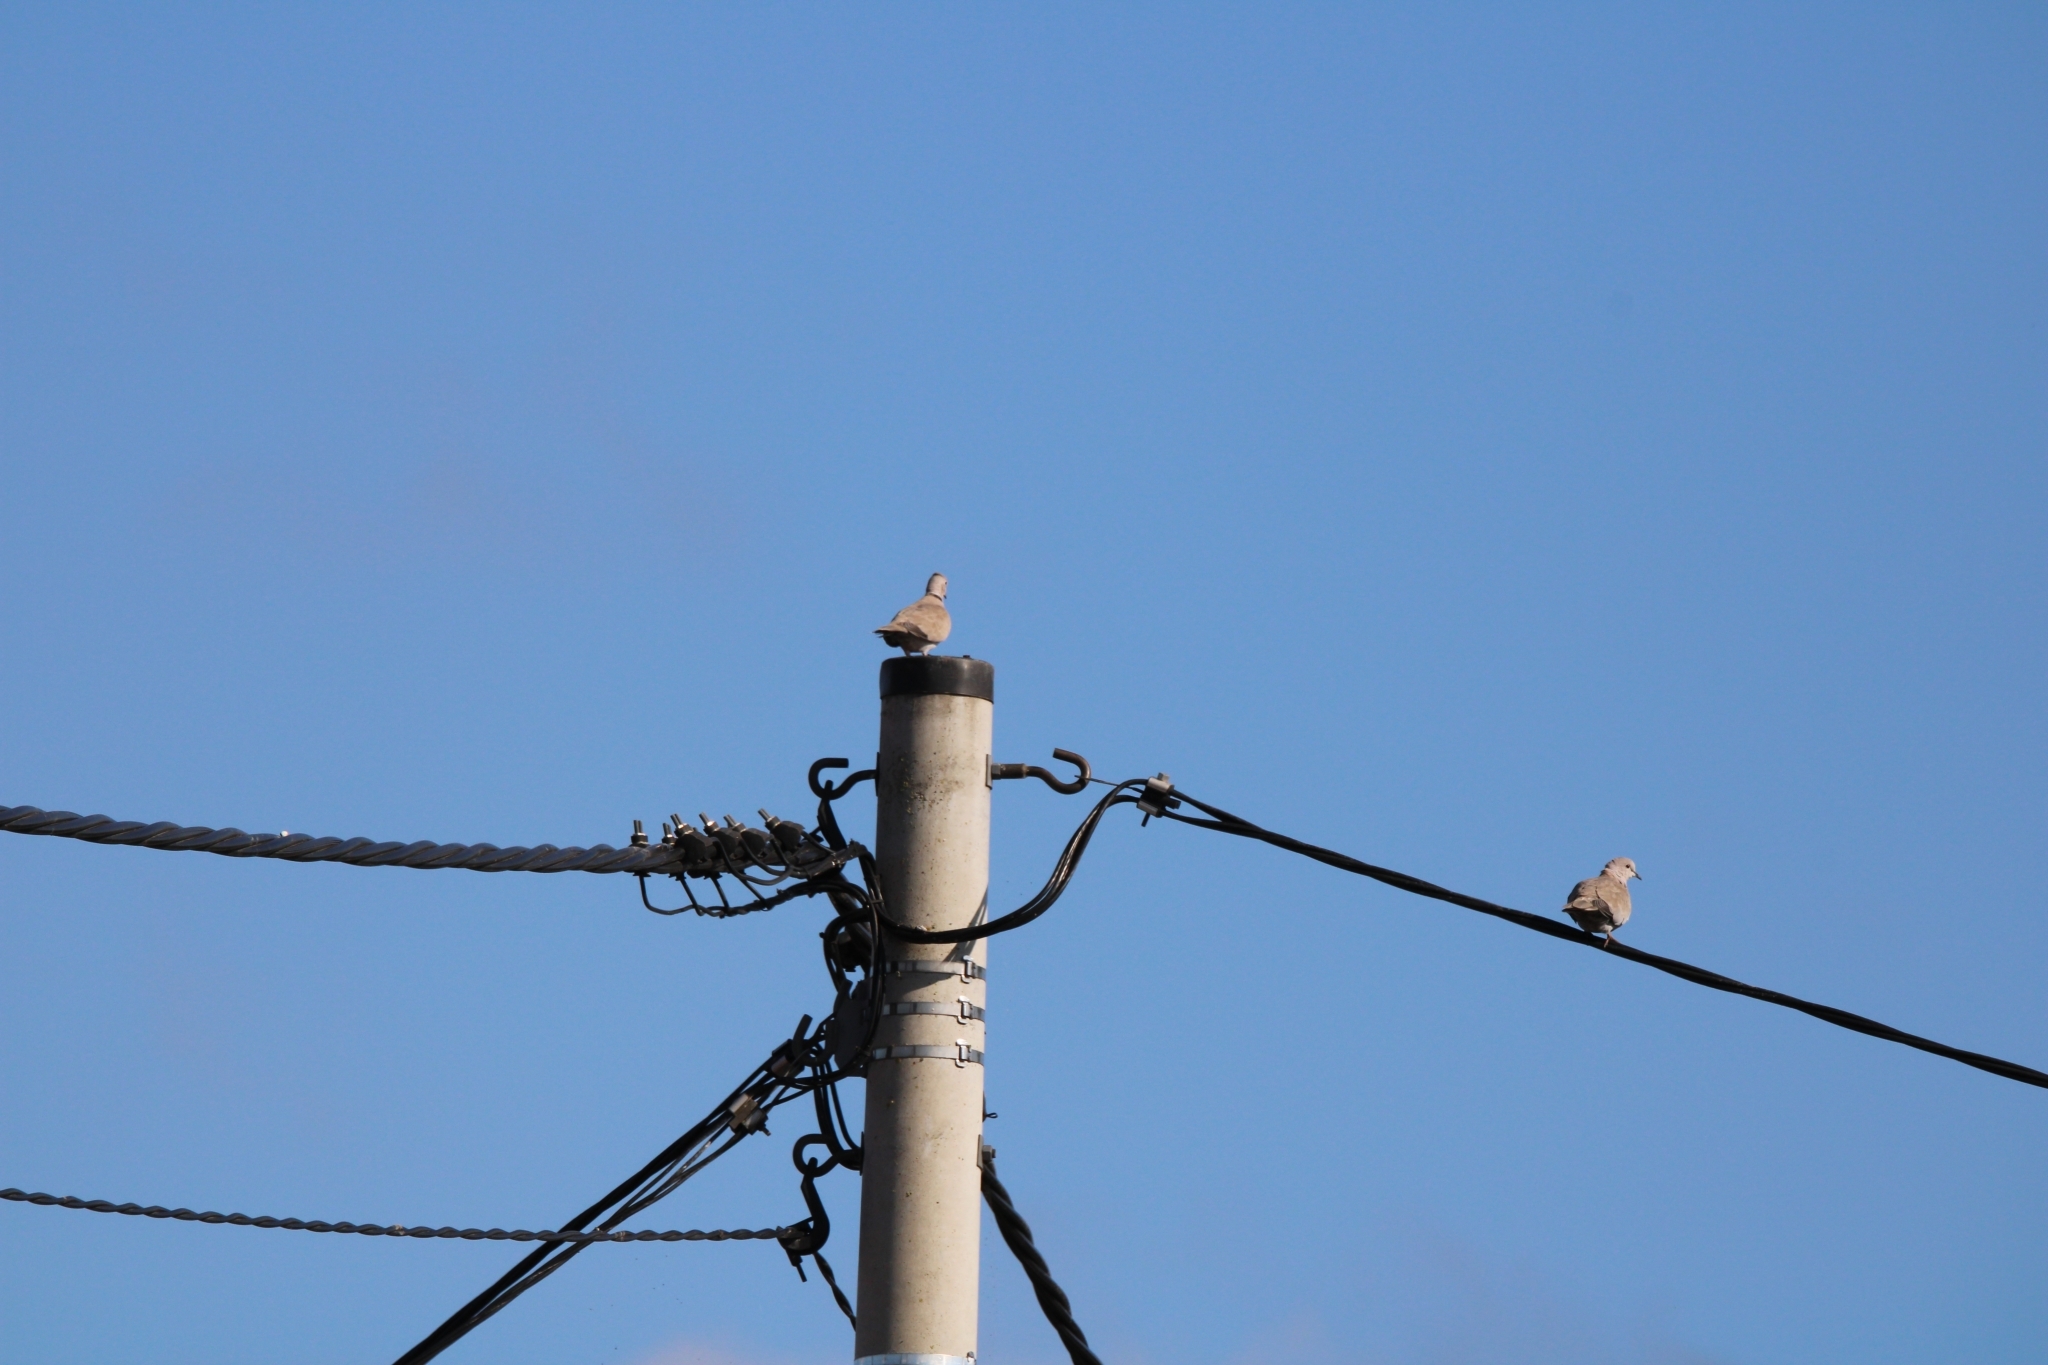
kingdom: Animalia
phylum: Chordata
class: Aves
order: Columbiformes
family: Columbidae
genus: Streptopelia
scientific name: Streptopelia decaocto
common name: Eurasian collared dove
